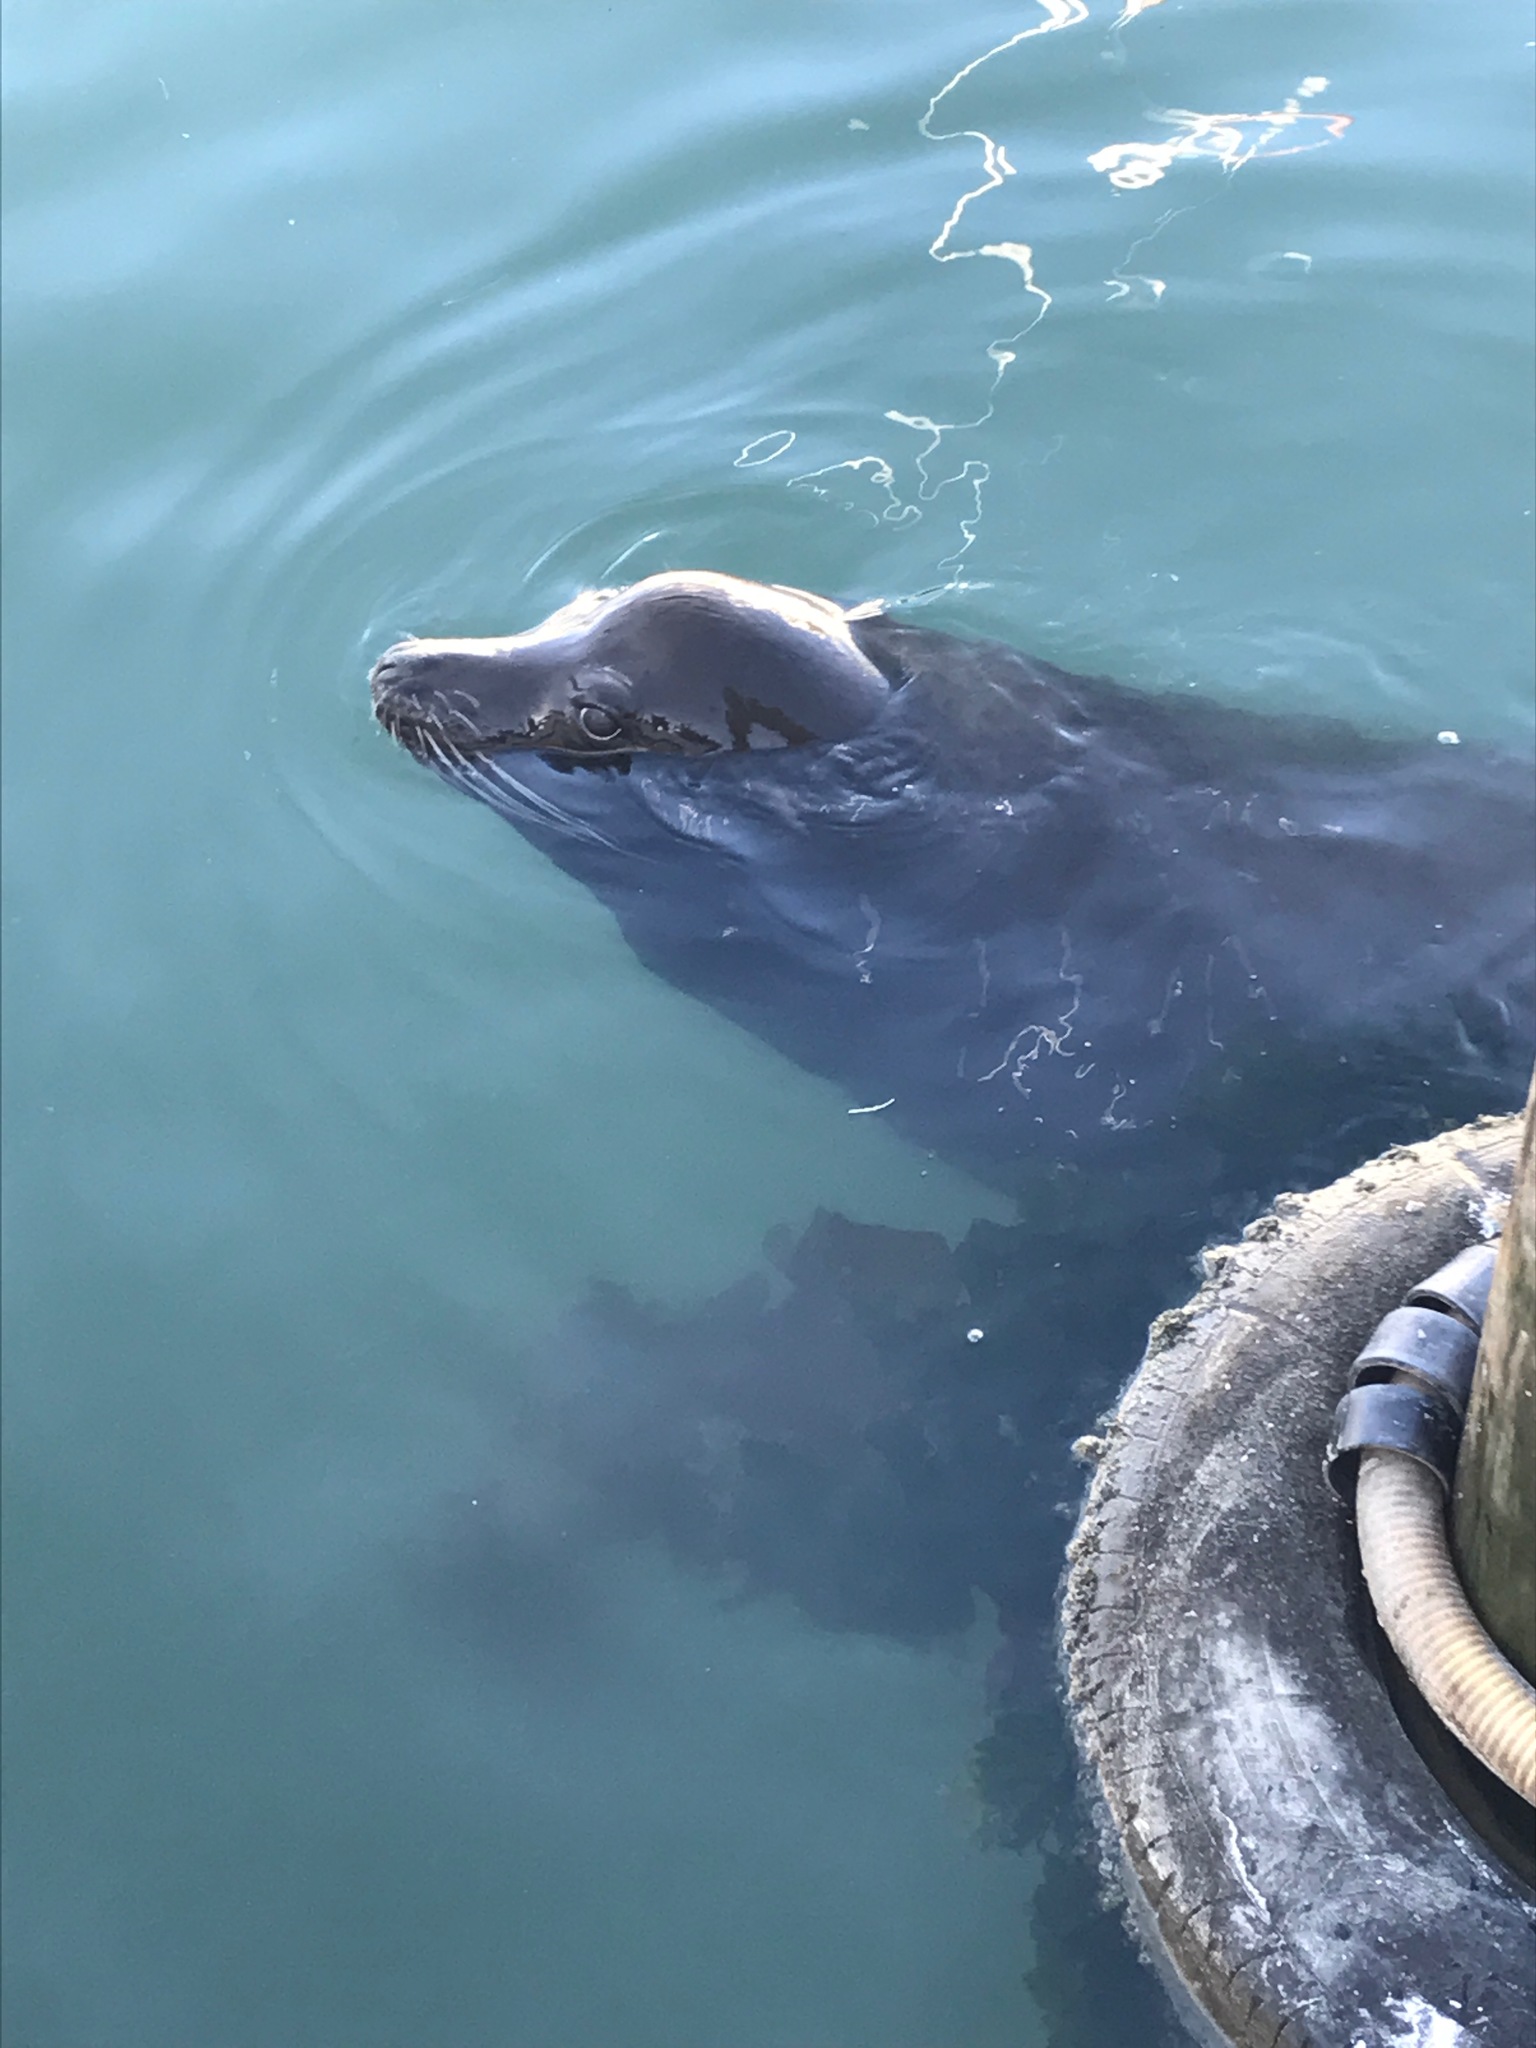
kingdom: Animalia
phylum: Chordata
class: Mammalia
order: Carnivora
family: Otariidae
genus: Zalophus
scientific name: Zalophus californianus
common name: California sea lion
